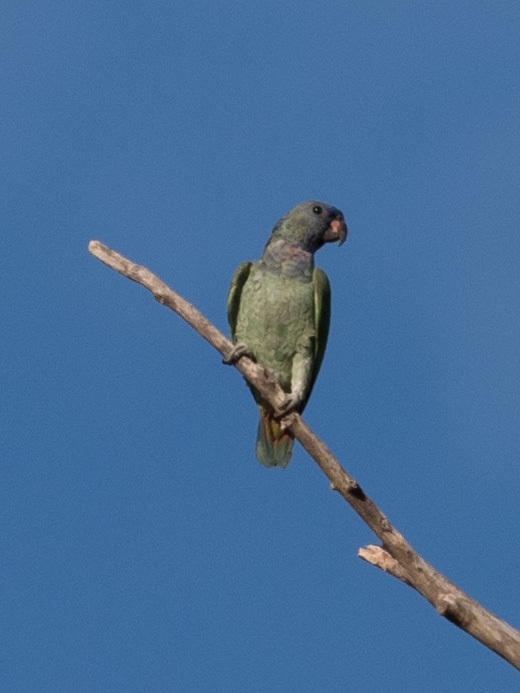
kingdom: Animalia
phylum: Chordata
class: Aves
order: Psittaciformes
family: Psittacidae
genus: Pionus
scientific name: Pionus menstruus
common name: Blue-headed parrot
